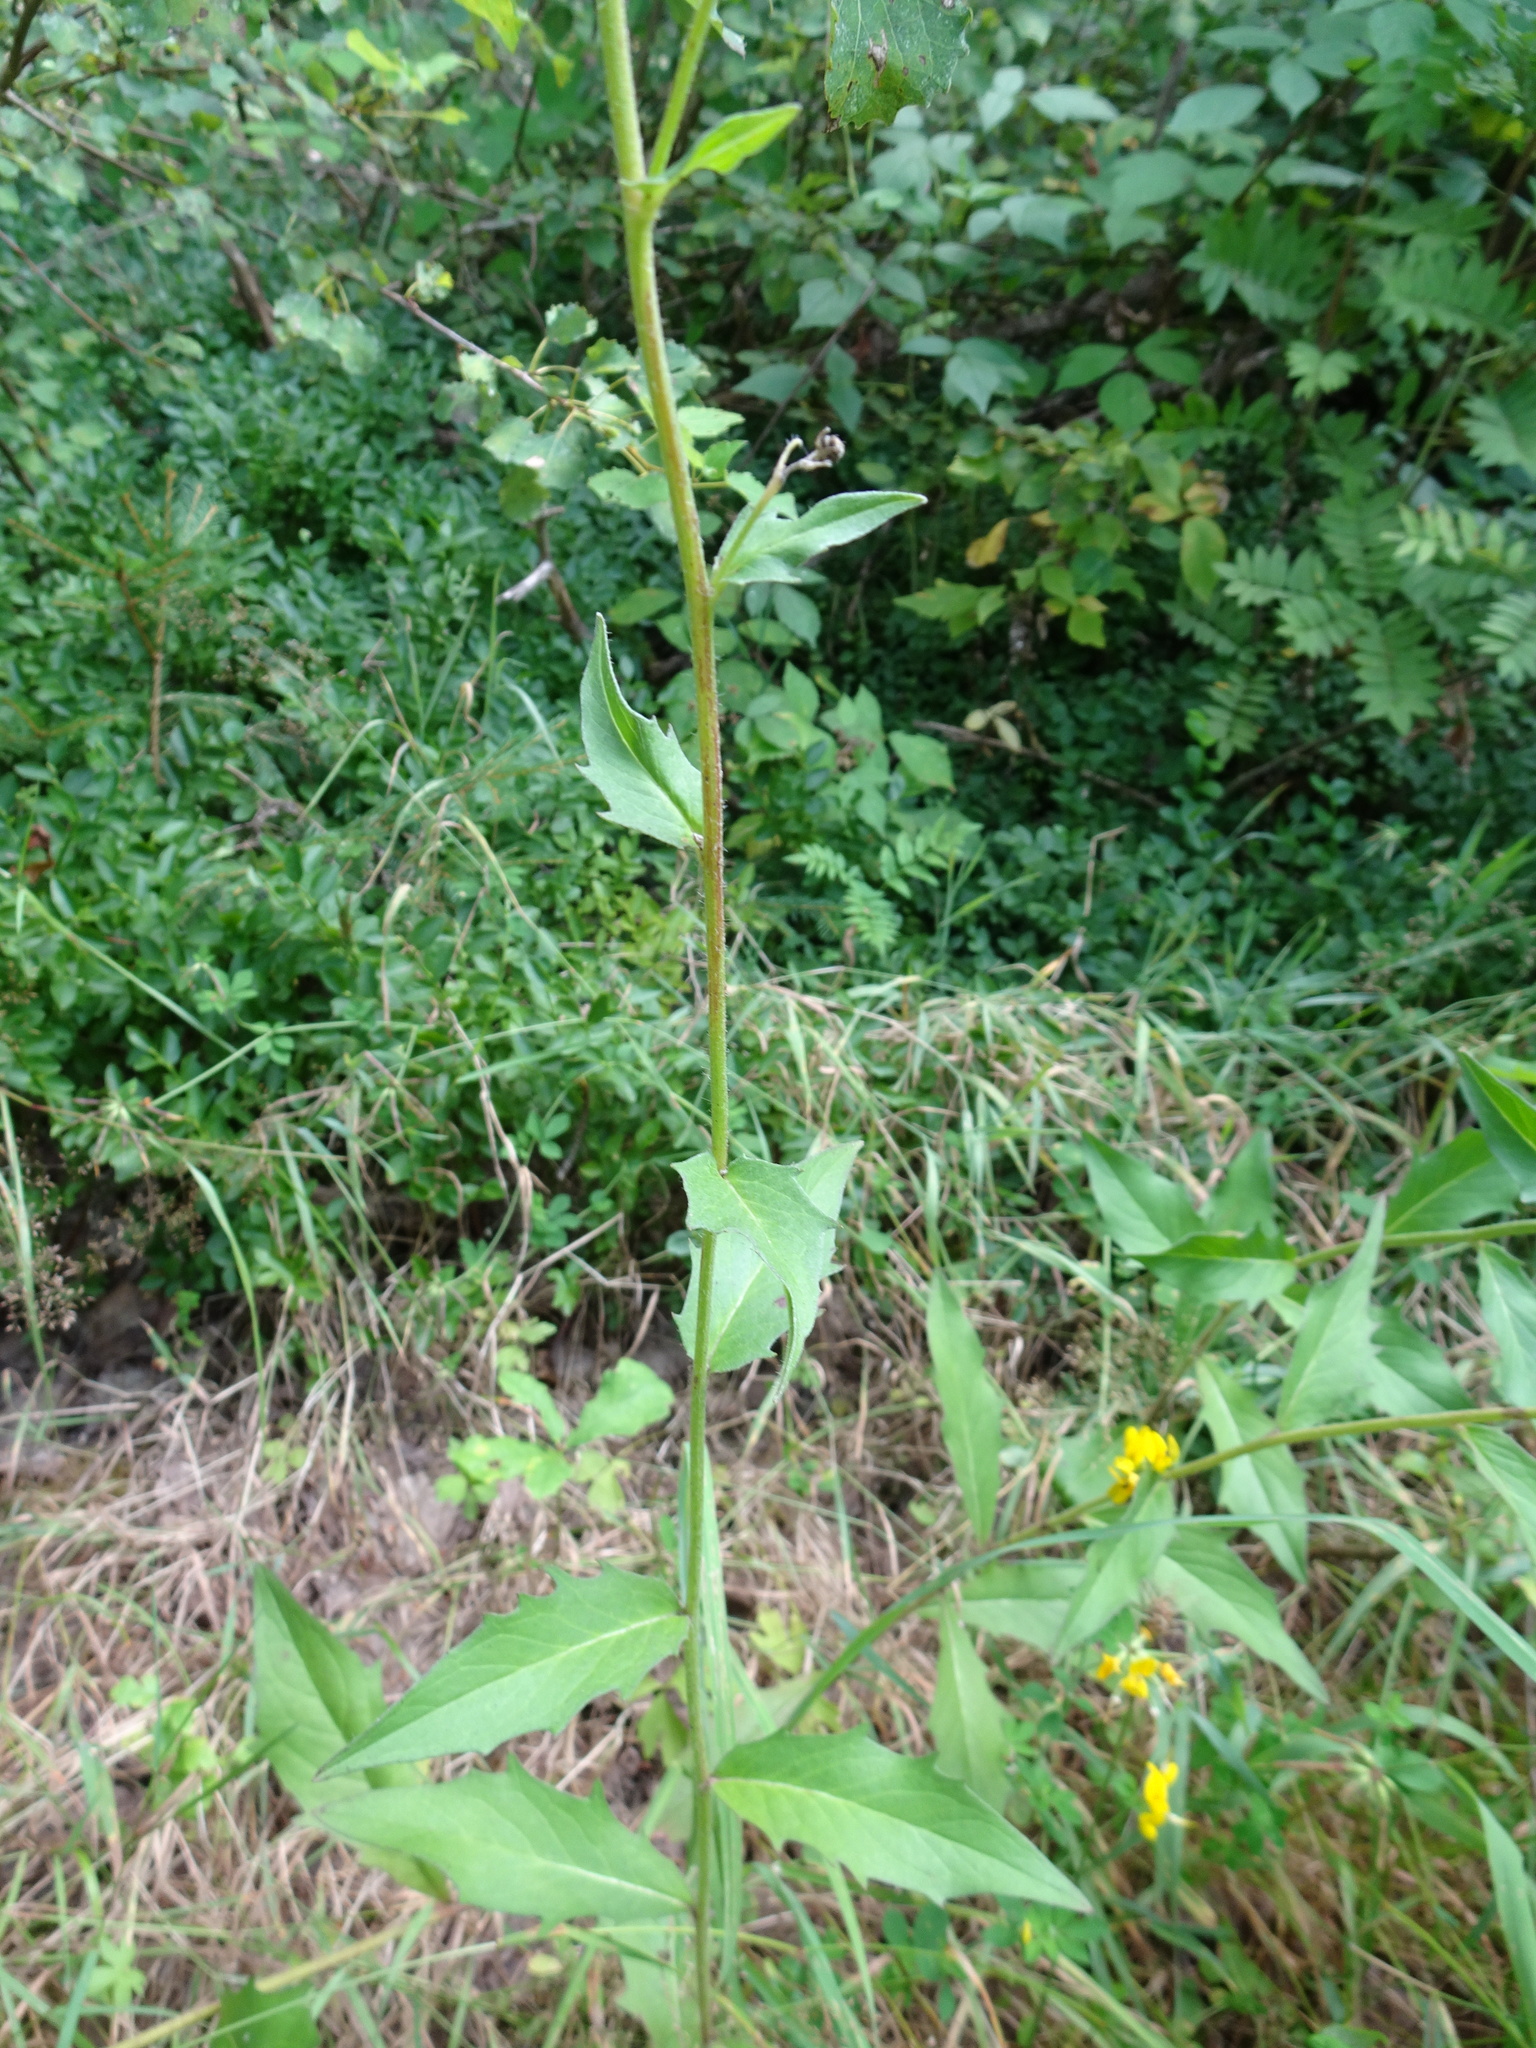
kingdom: Plantae
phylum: Tracheophyta
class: Magnoliopsida
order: Asterales
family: Asteraceae
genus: Hieracium
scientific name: Hieracium umbellatum
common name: Northern hawkweed
